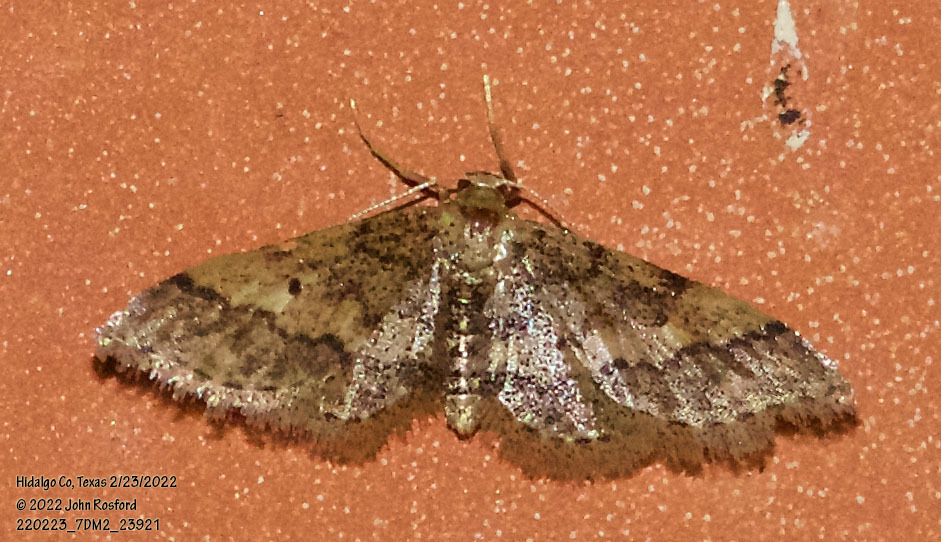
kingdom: Animalia
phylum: Arthropoda
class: Insecta
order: Lepidoptera
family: Geometridae
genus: Idaea
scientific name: Idaea celtima
